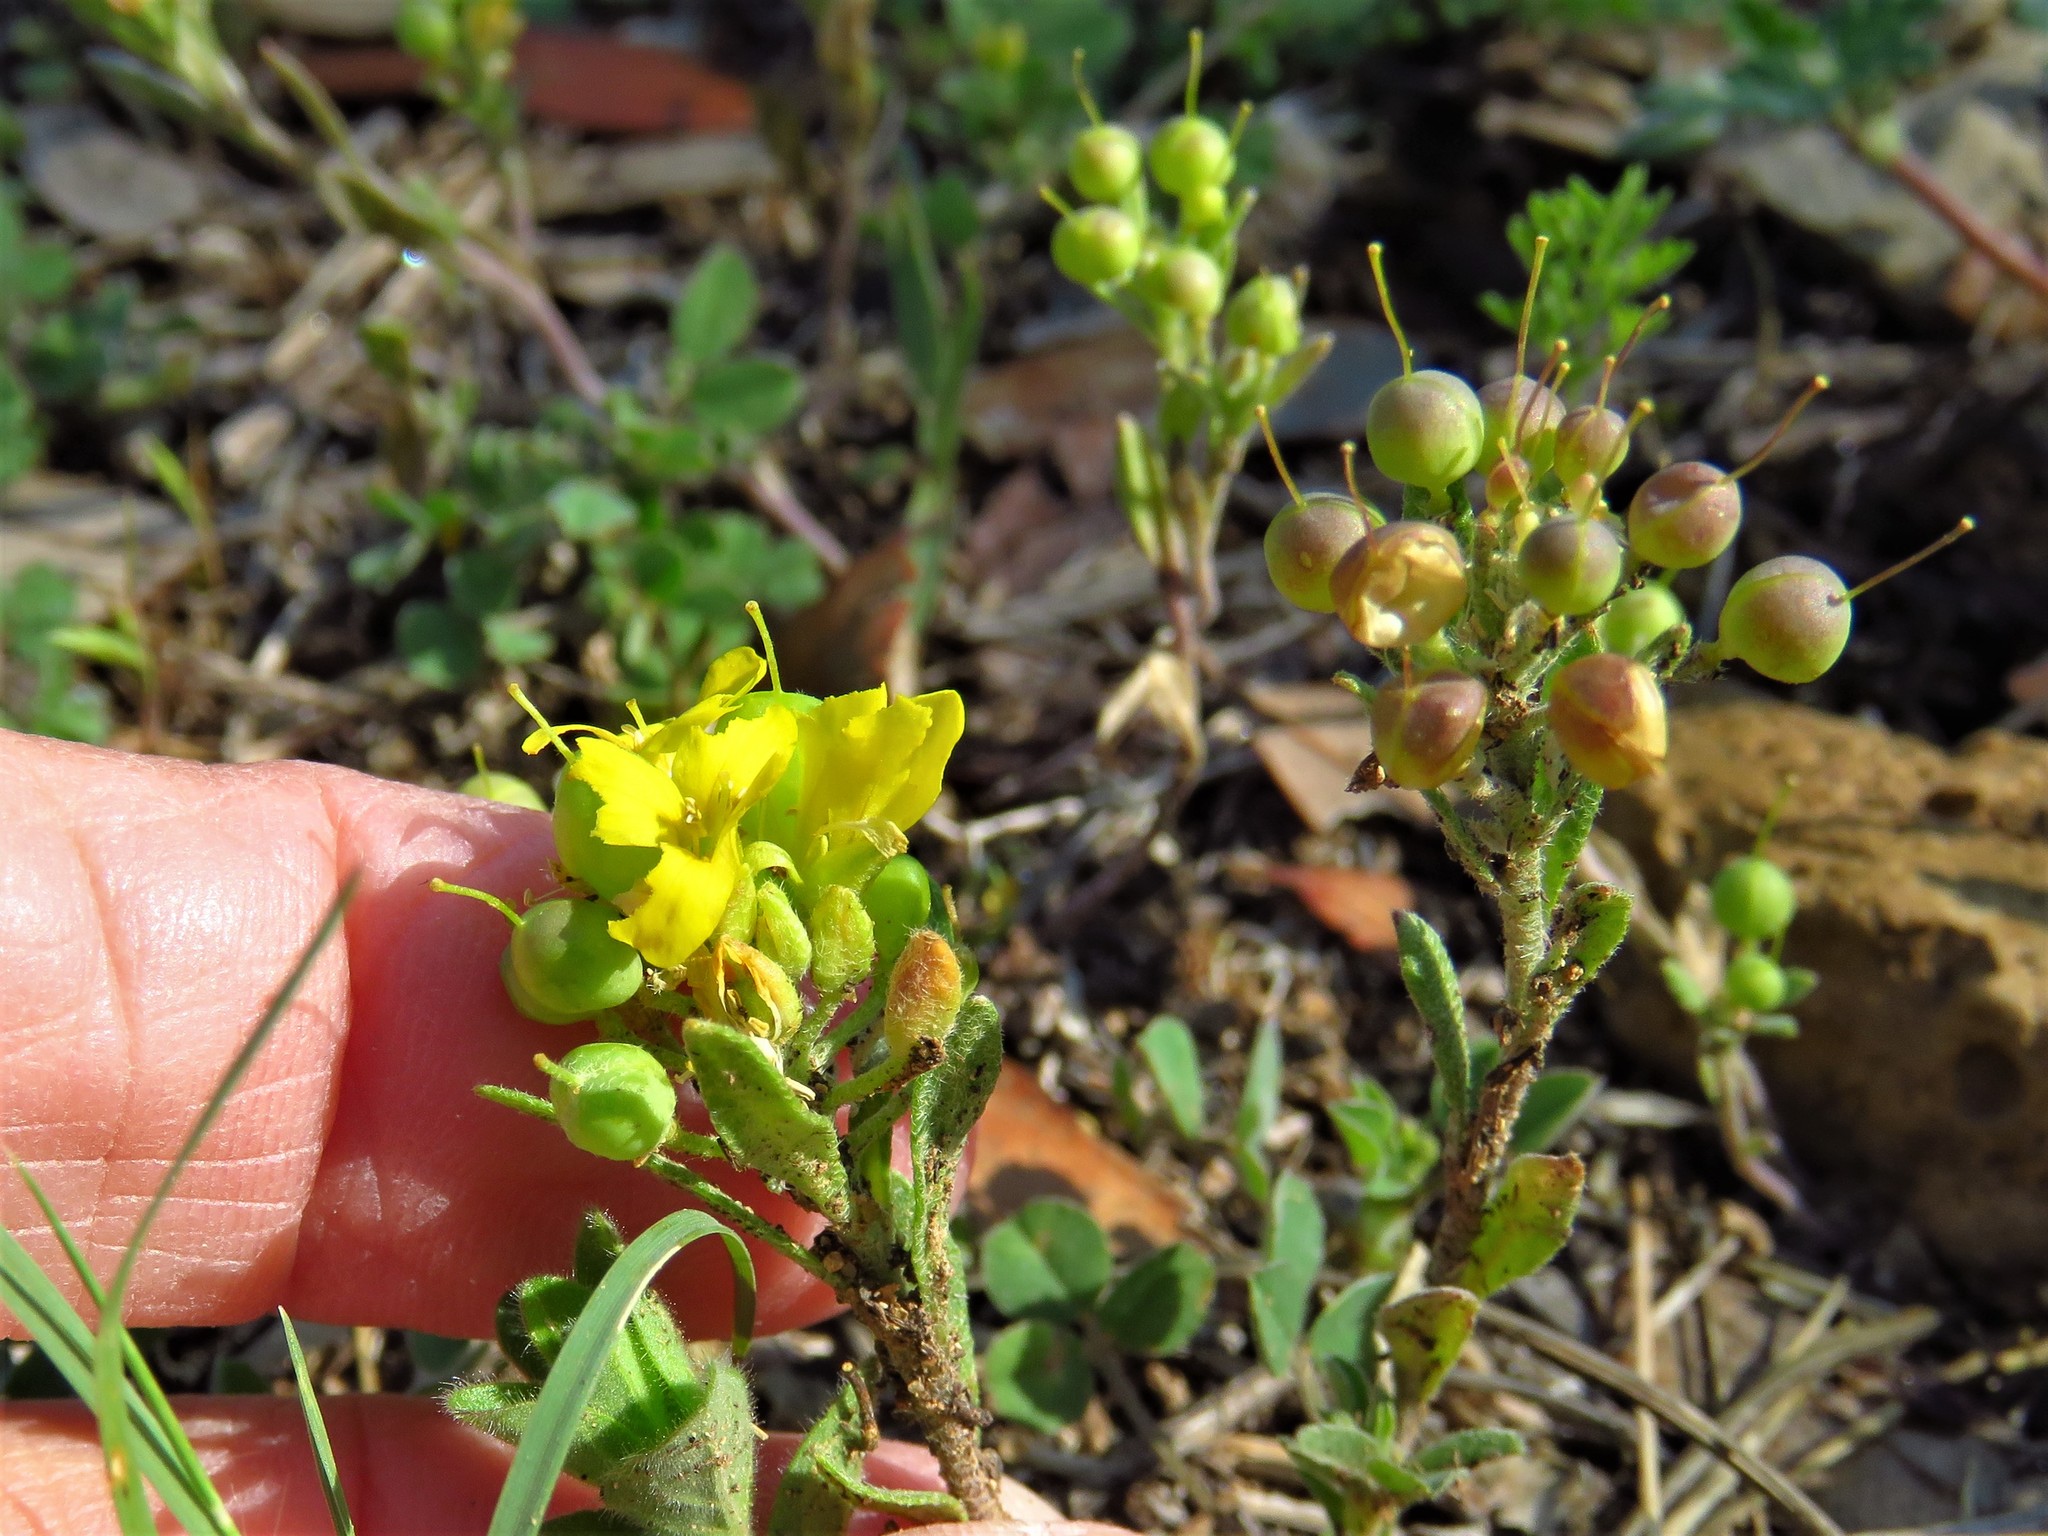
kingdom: Plantae
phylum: Tracheophyta
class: Magnoliopsida
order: Brassicales
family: Brassicaceae
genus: Physaria
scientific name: Physaria densiflora
